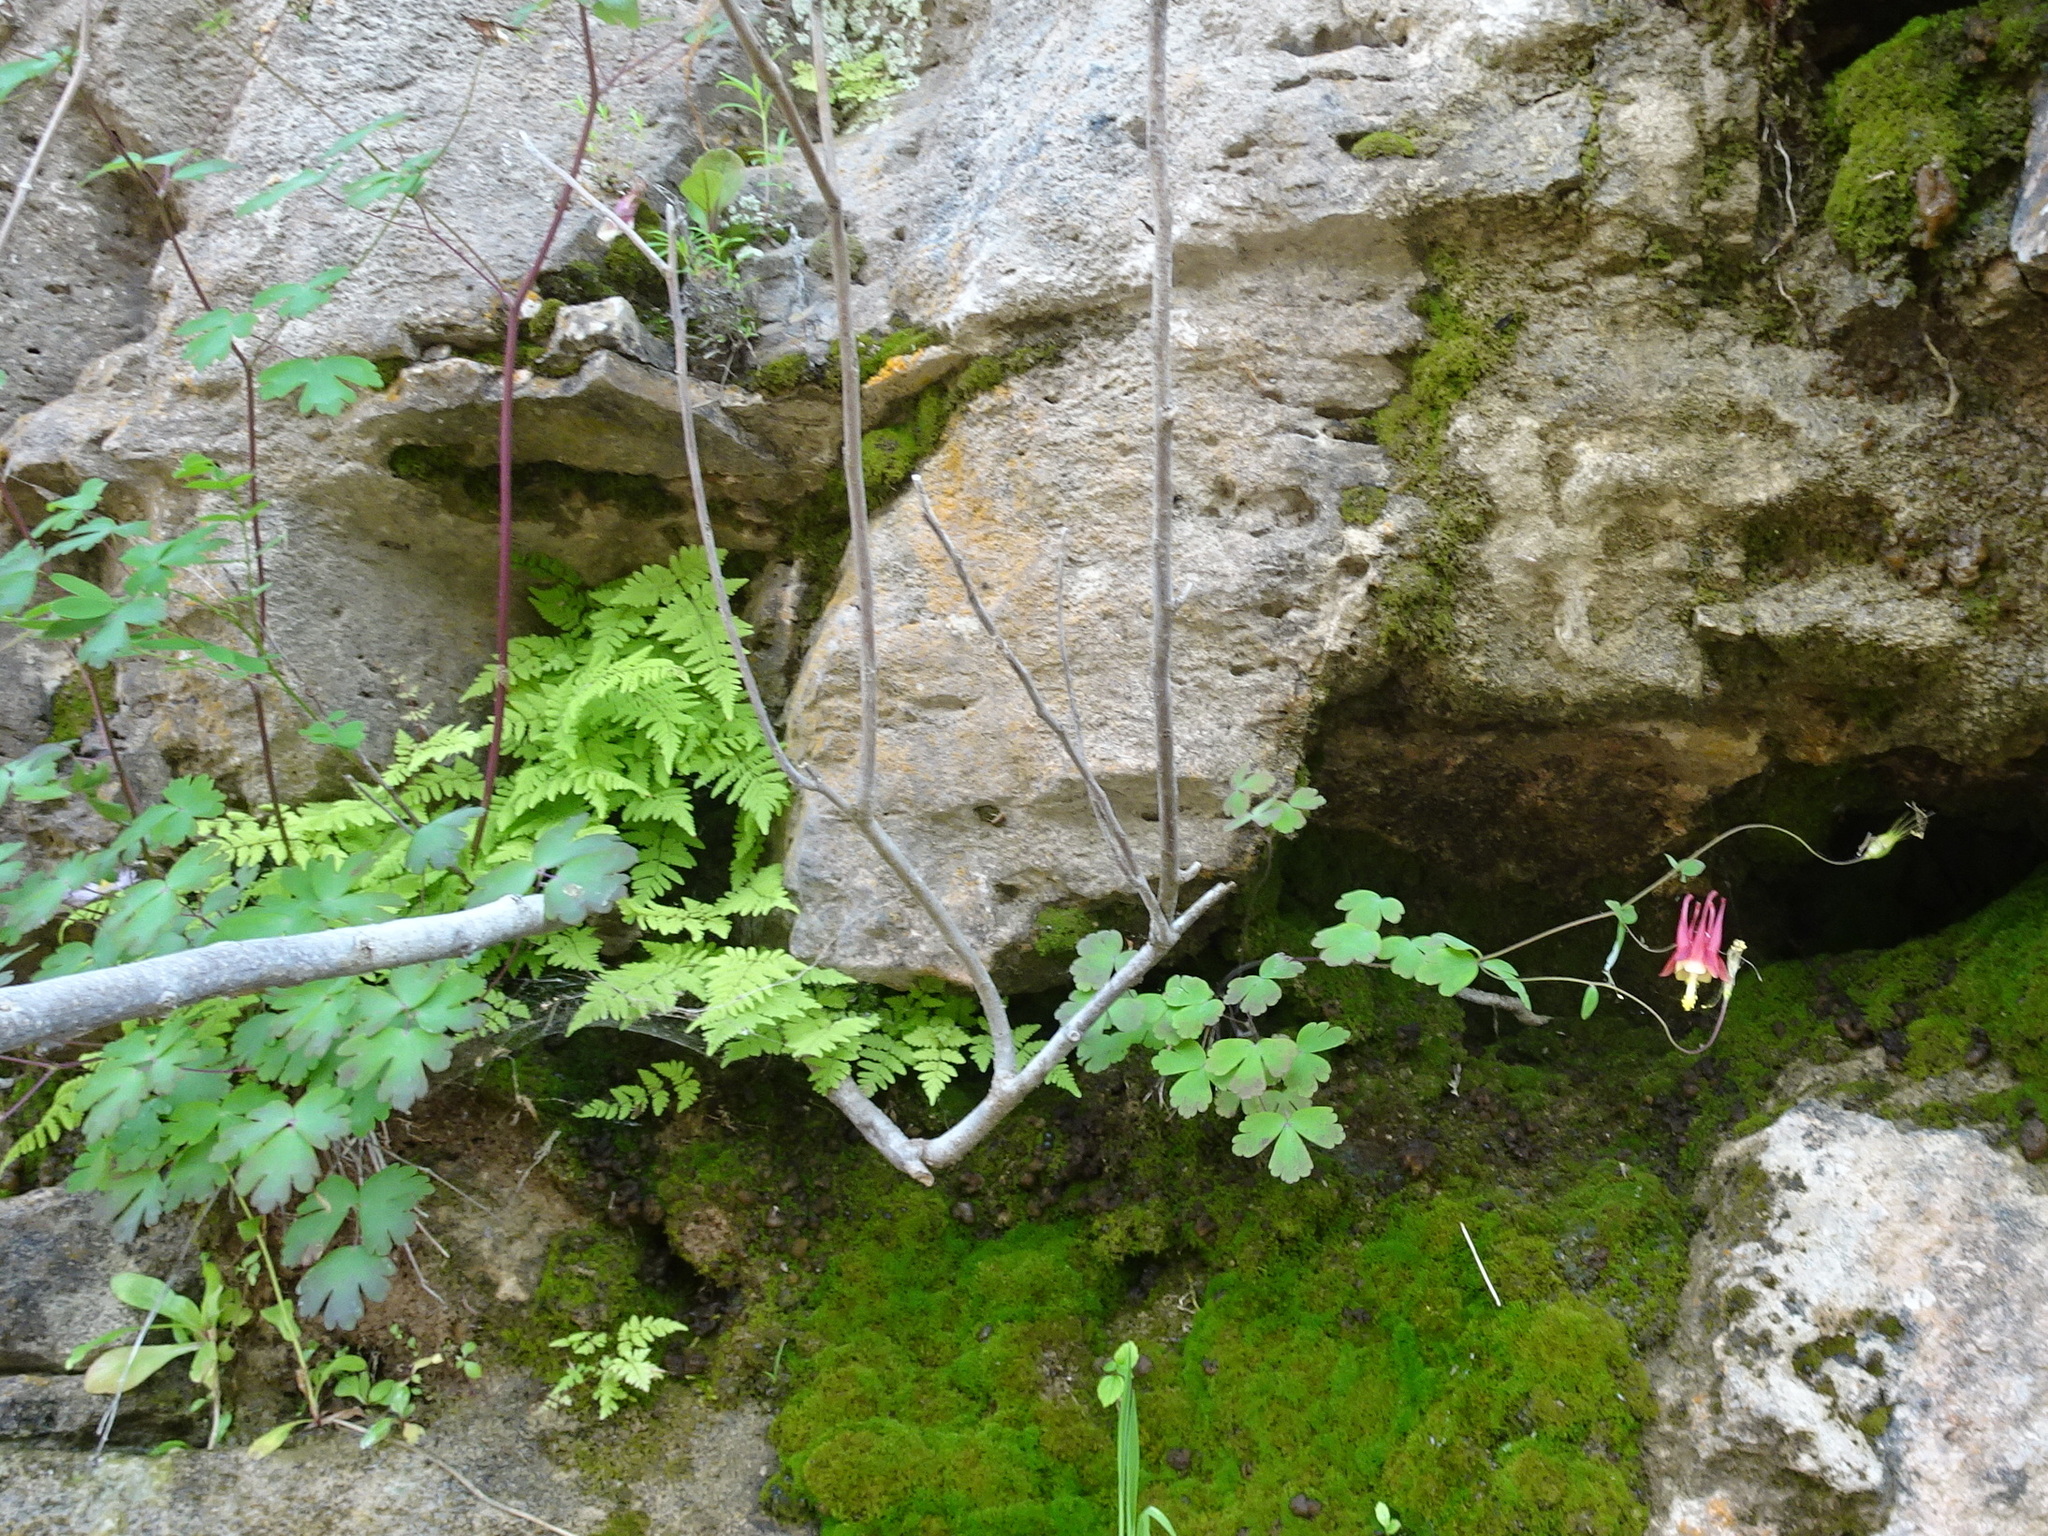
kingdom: Plantae
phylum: Tracheophyta
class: Magnoliopsida
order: Ranunculales
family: Ranunculaceae
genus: Aquilegia
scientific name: Aquilegia canadensis
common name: American columbine
